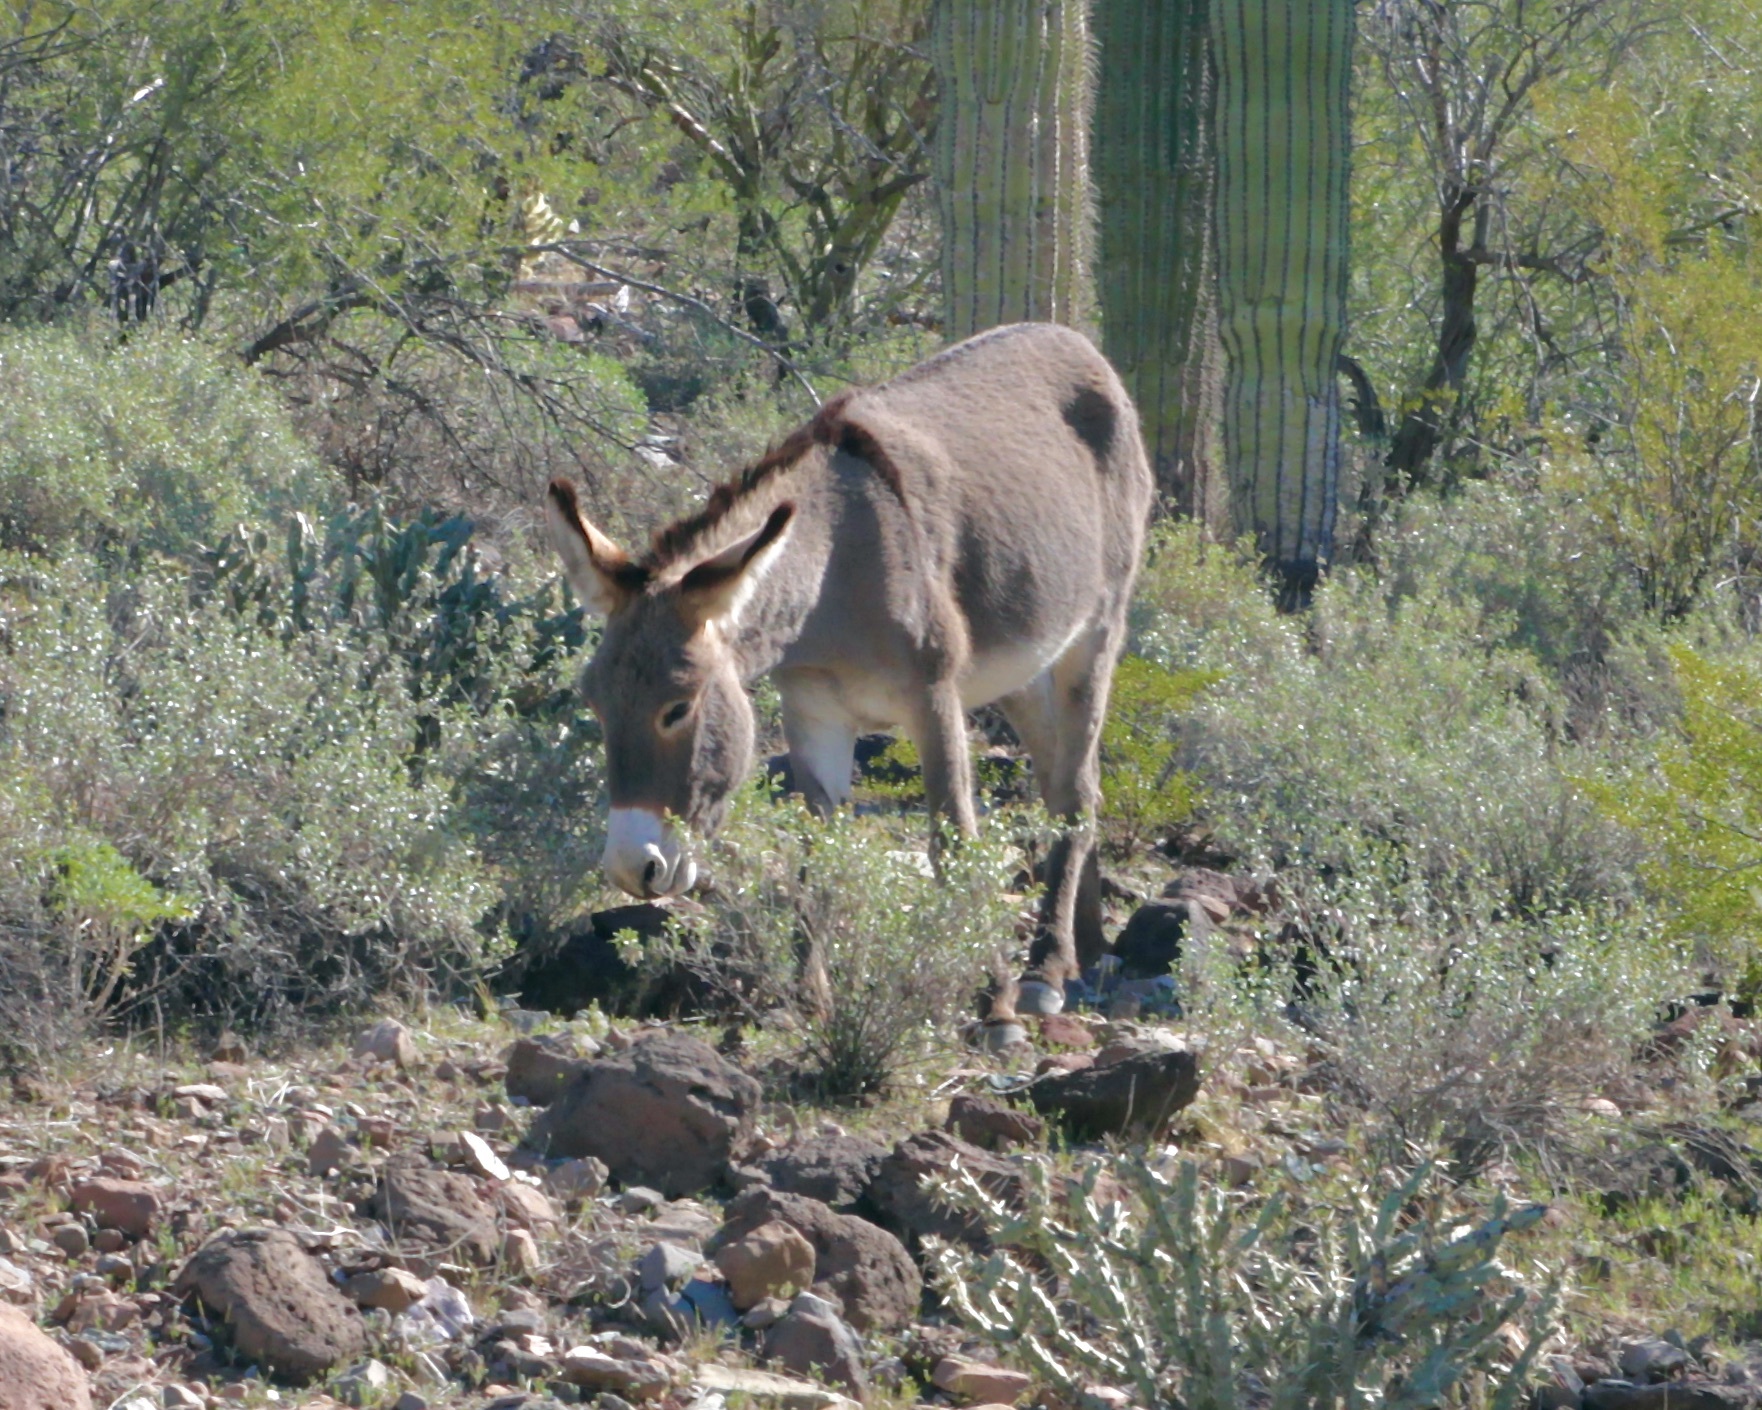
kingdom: Animalia
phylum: Chordata
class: Mammalia
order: Perissodactyla
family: Equidae
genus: Equus
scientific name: Equus asinus
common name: Ass
